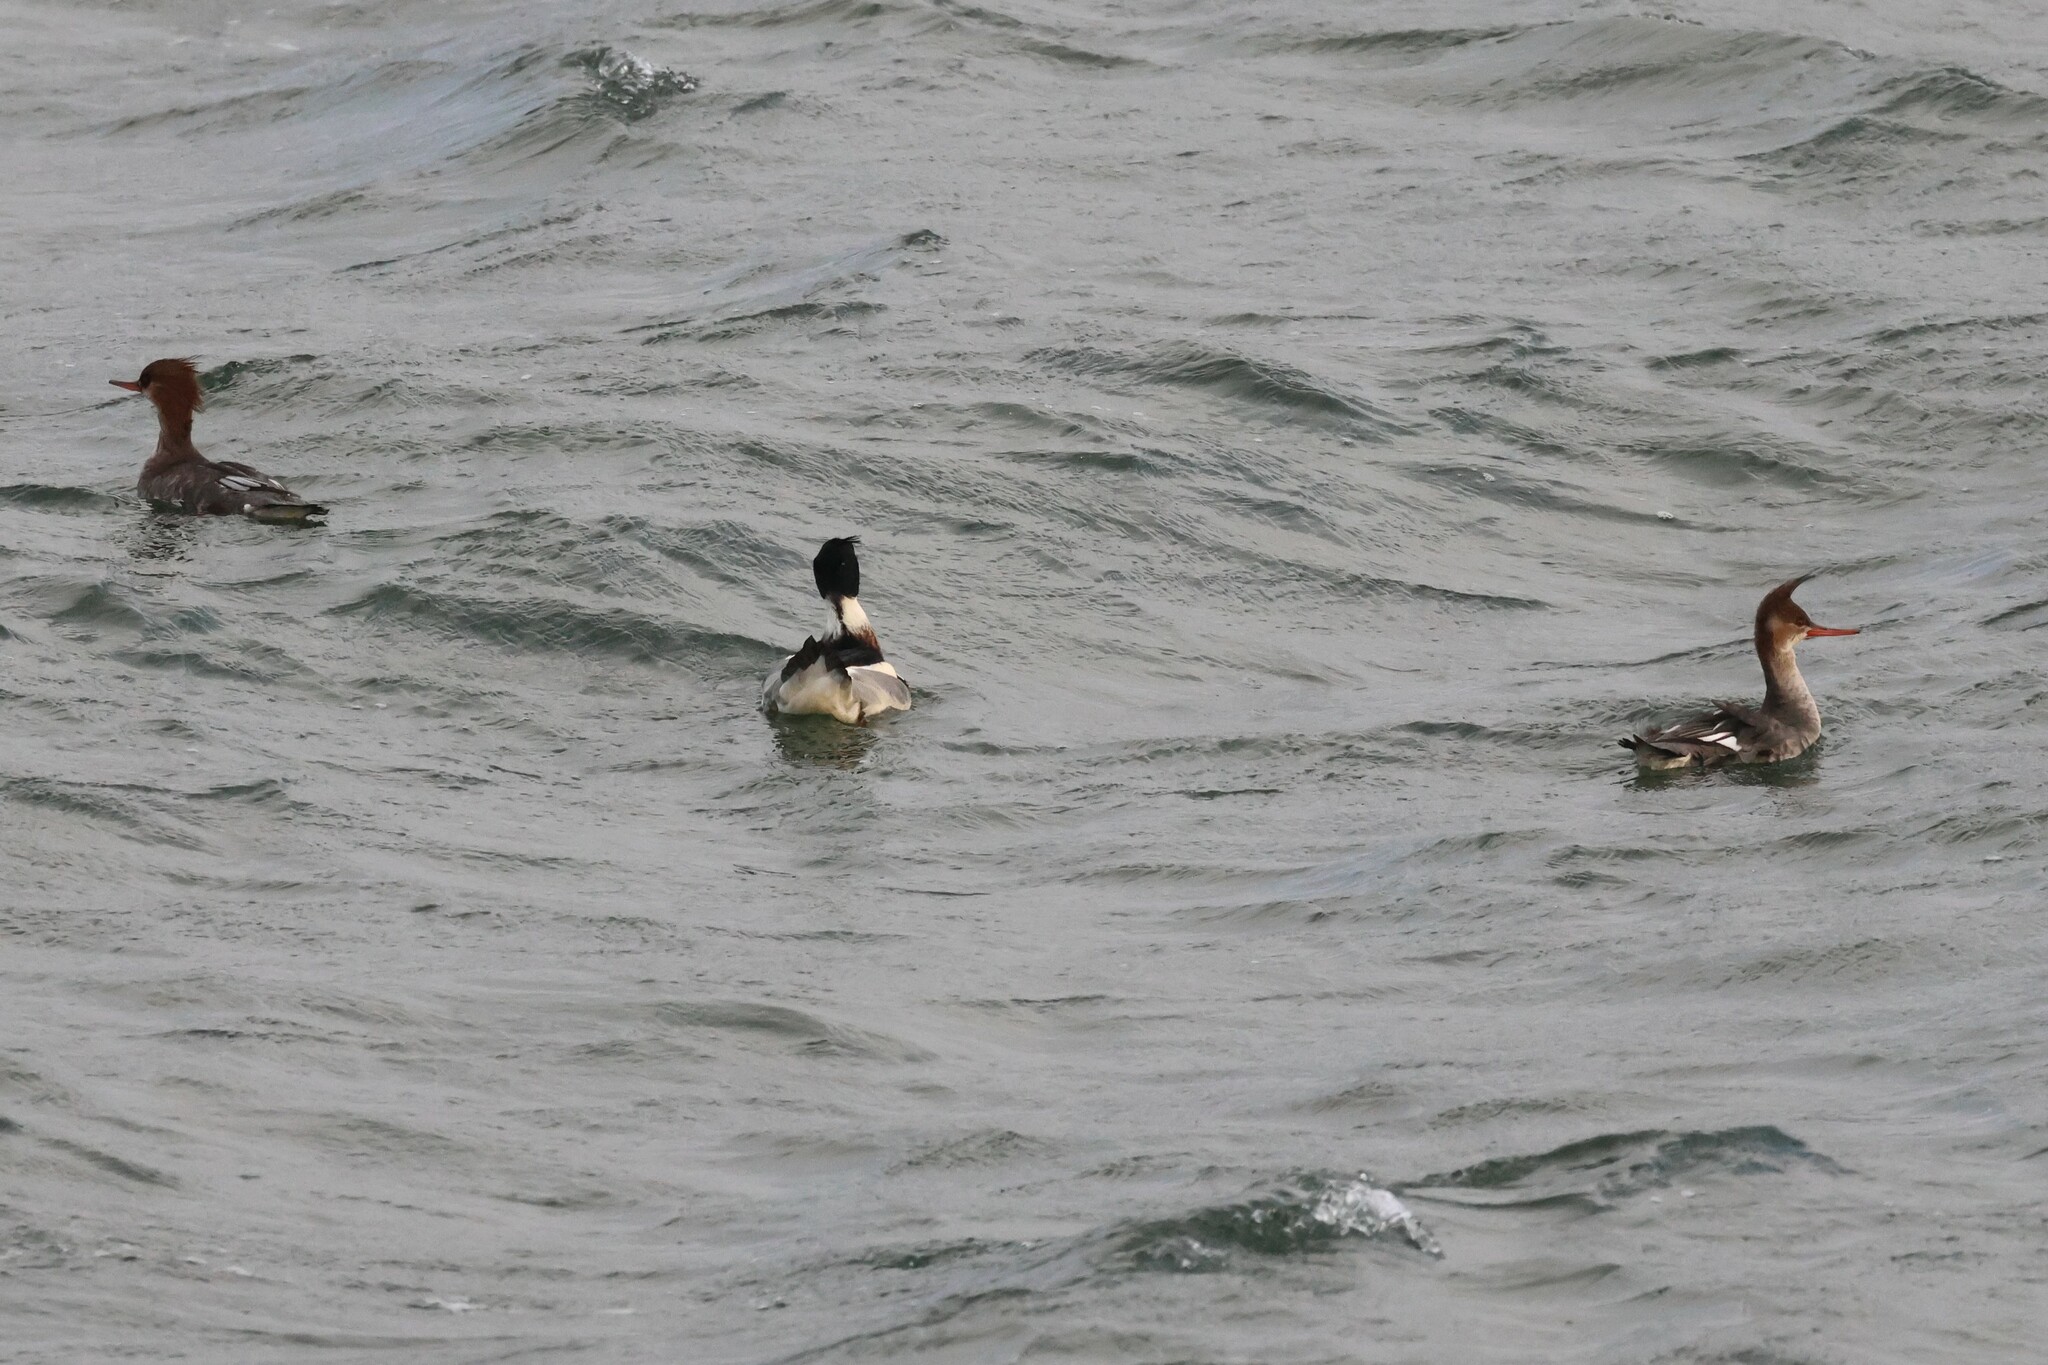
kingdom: Animalia
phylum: Chordata
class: Aves
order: Anseriformes
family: Anatidae
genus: Mergus
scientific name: Mergus serrator
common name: Red-breasted merganser
